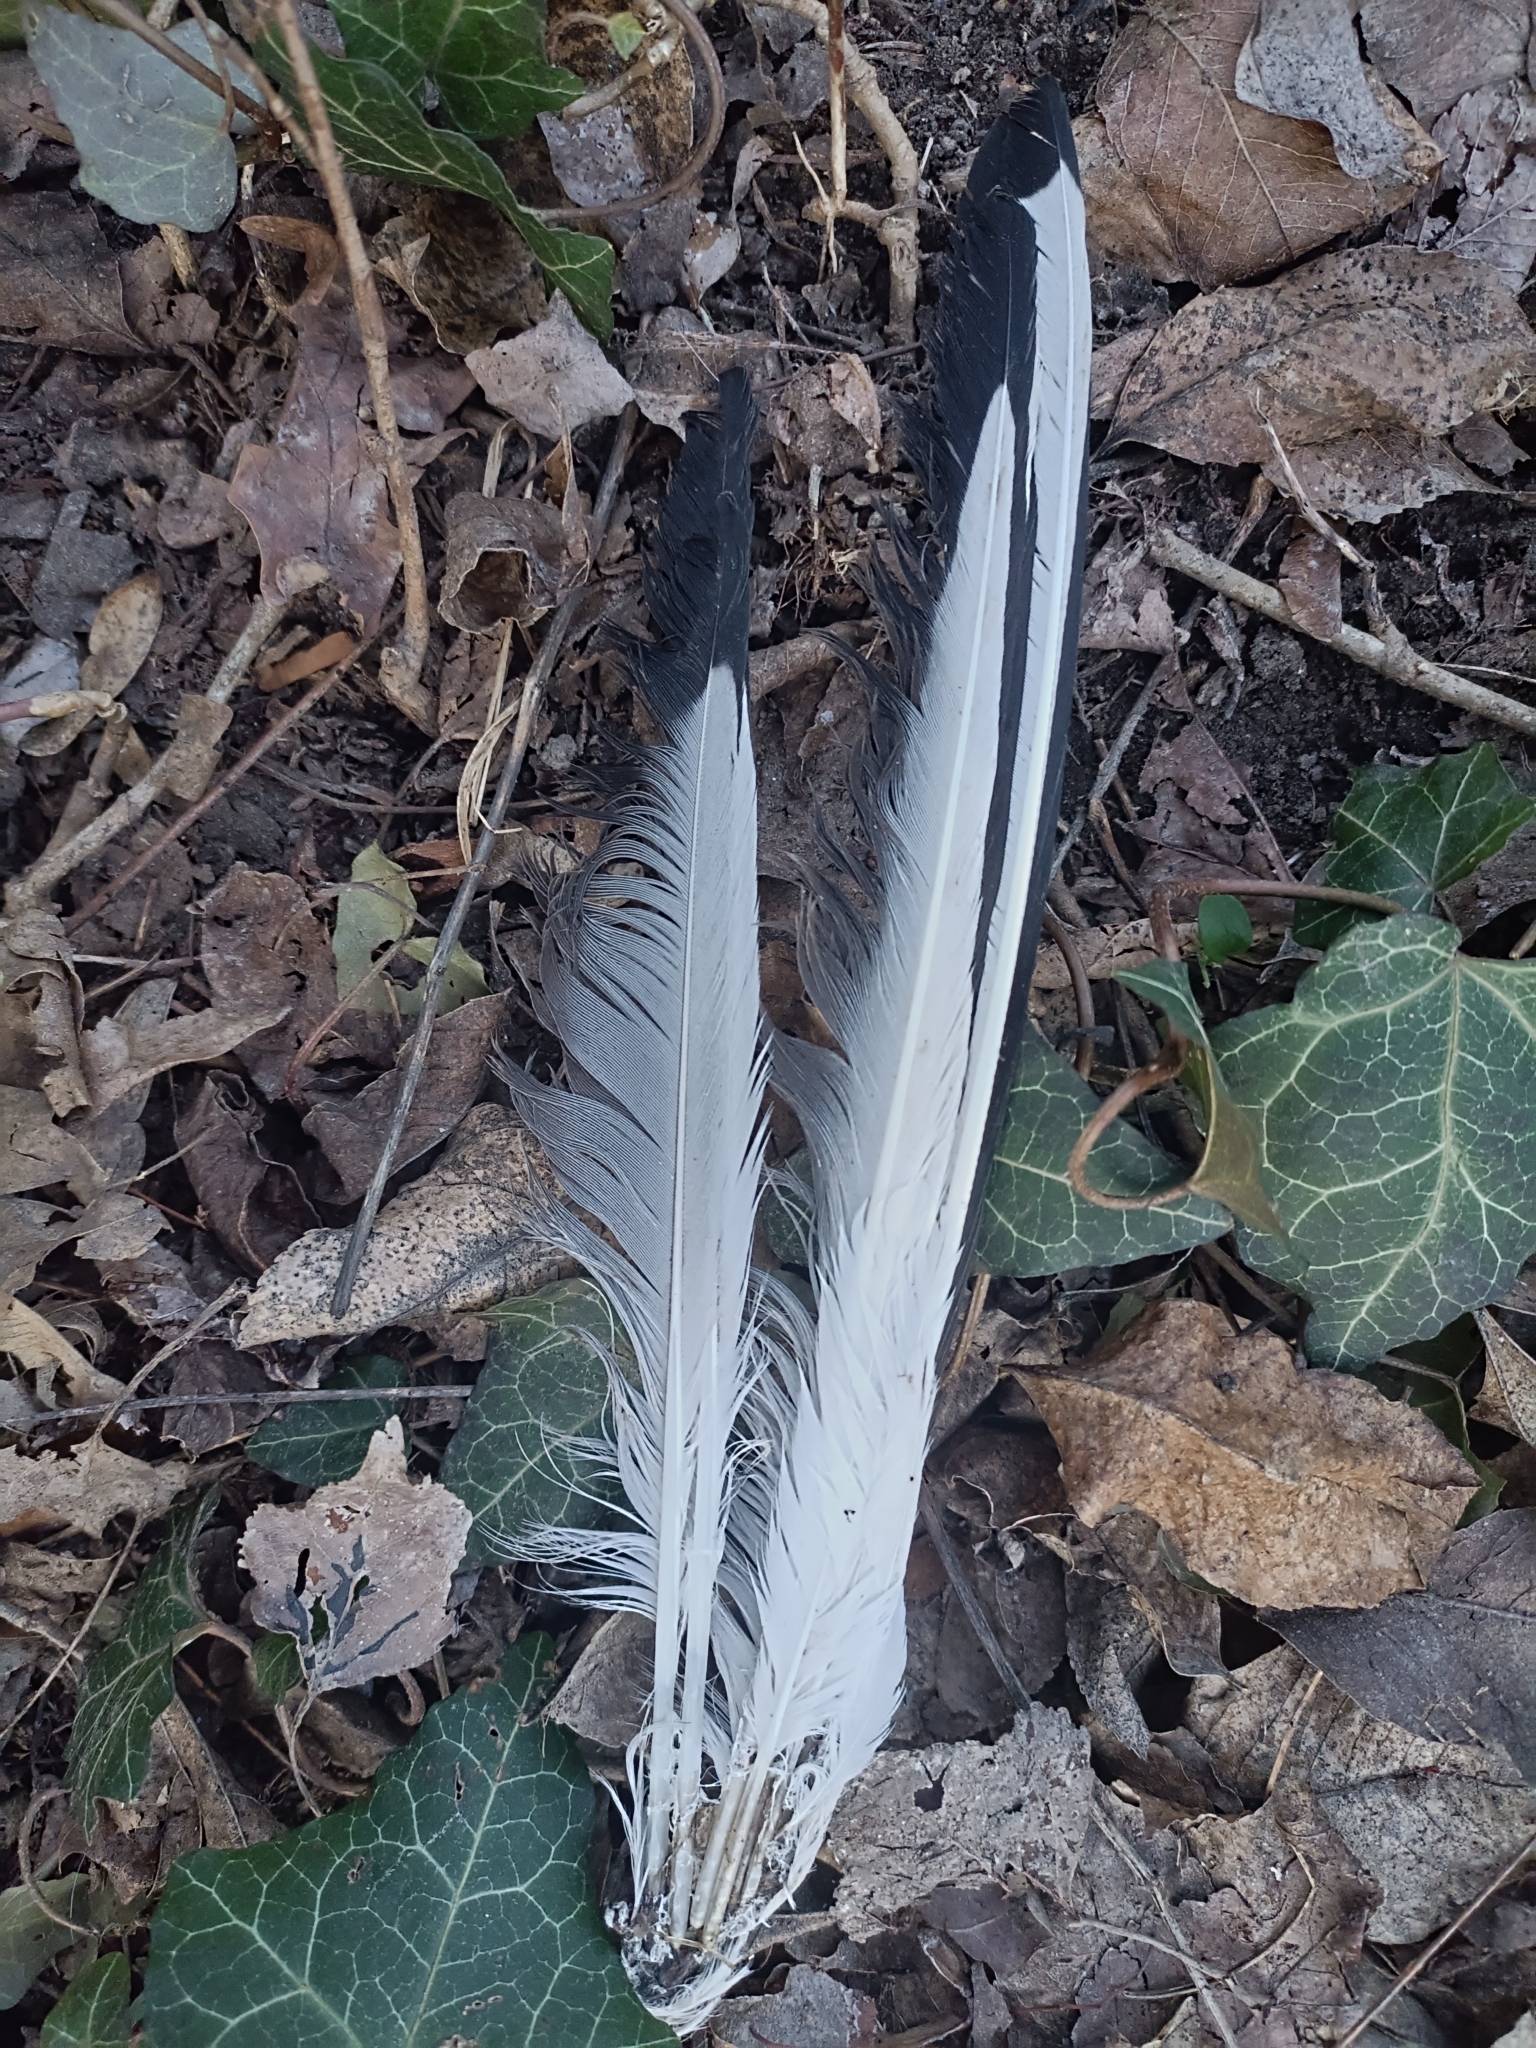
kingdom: Animalia
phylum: Chordata
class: Aves
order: Charadriiformes
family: Laridae
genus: Chroicocephalus
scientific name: Chroicocephalus ridibundus
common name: Black-headed gull
